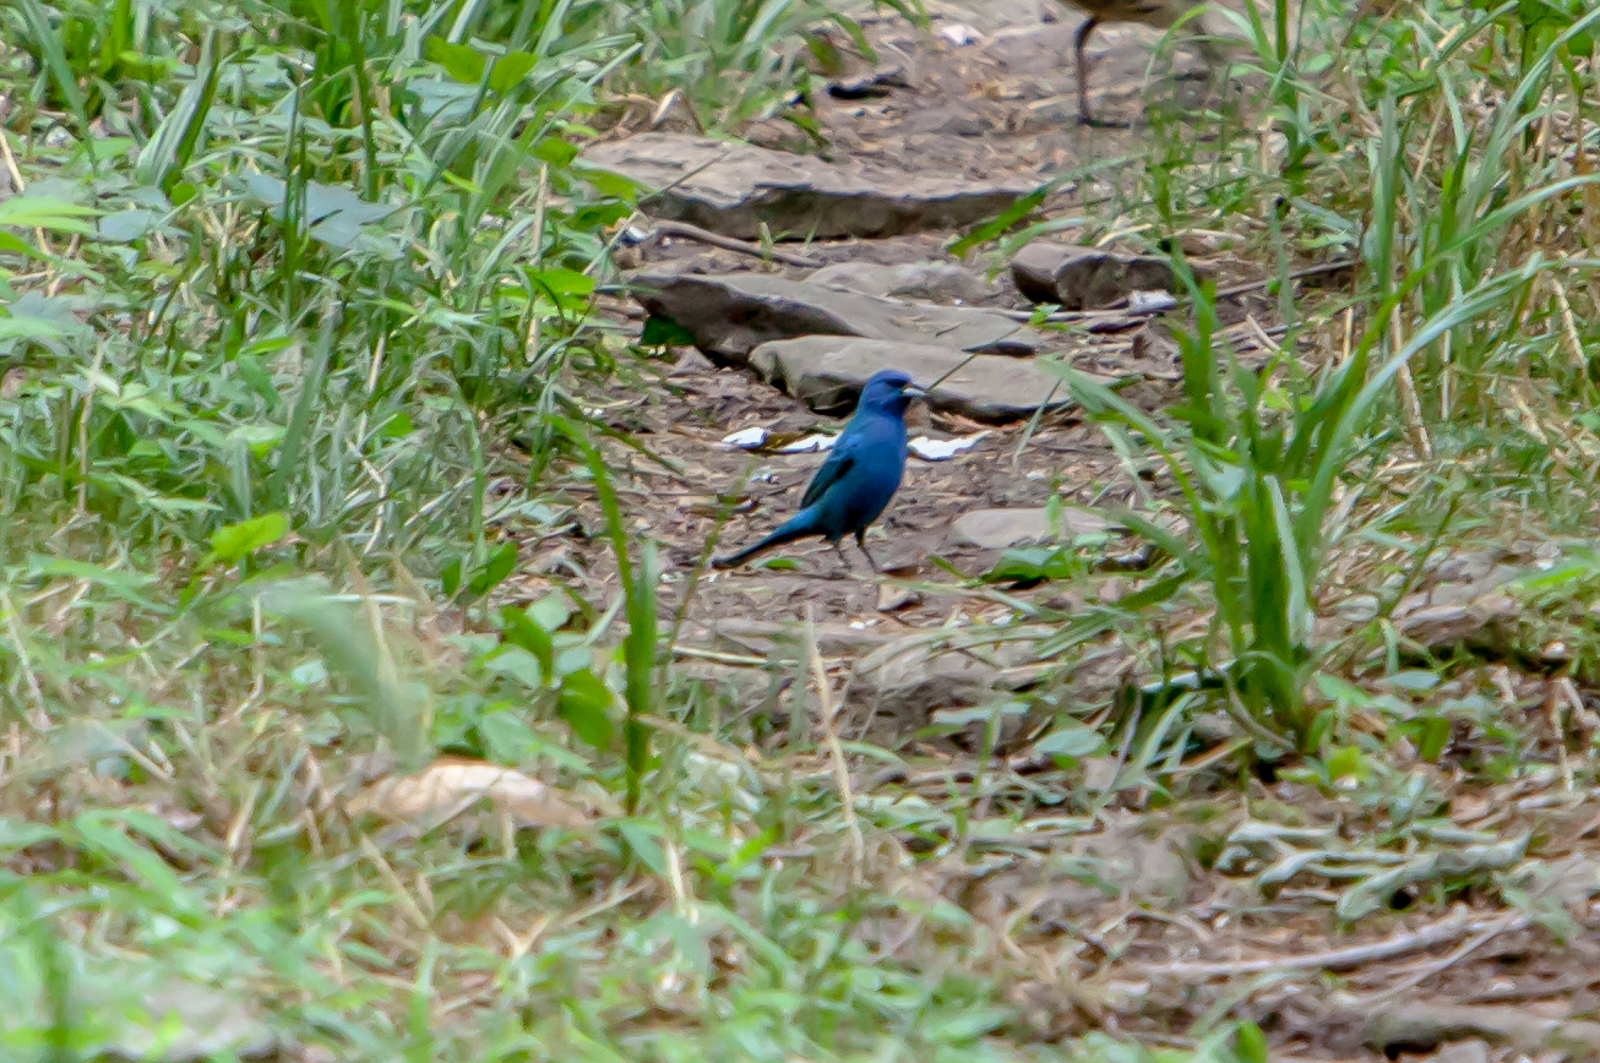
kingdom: Animalia
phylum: Chordata
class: Aves
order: Passeriformes
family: Cardinalidae
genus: Passerina
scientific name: Passerina cyanea
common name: Indigo bunting
